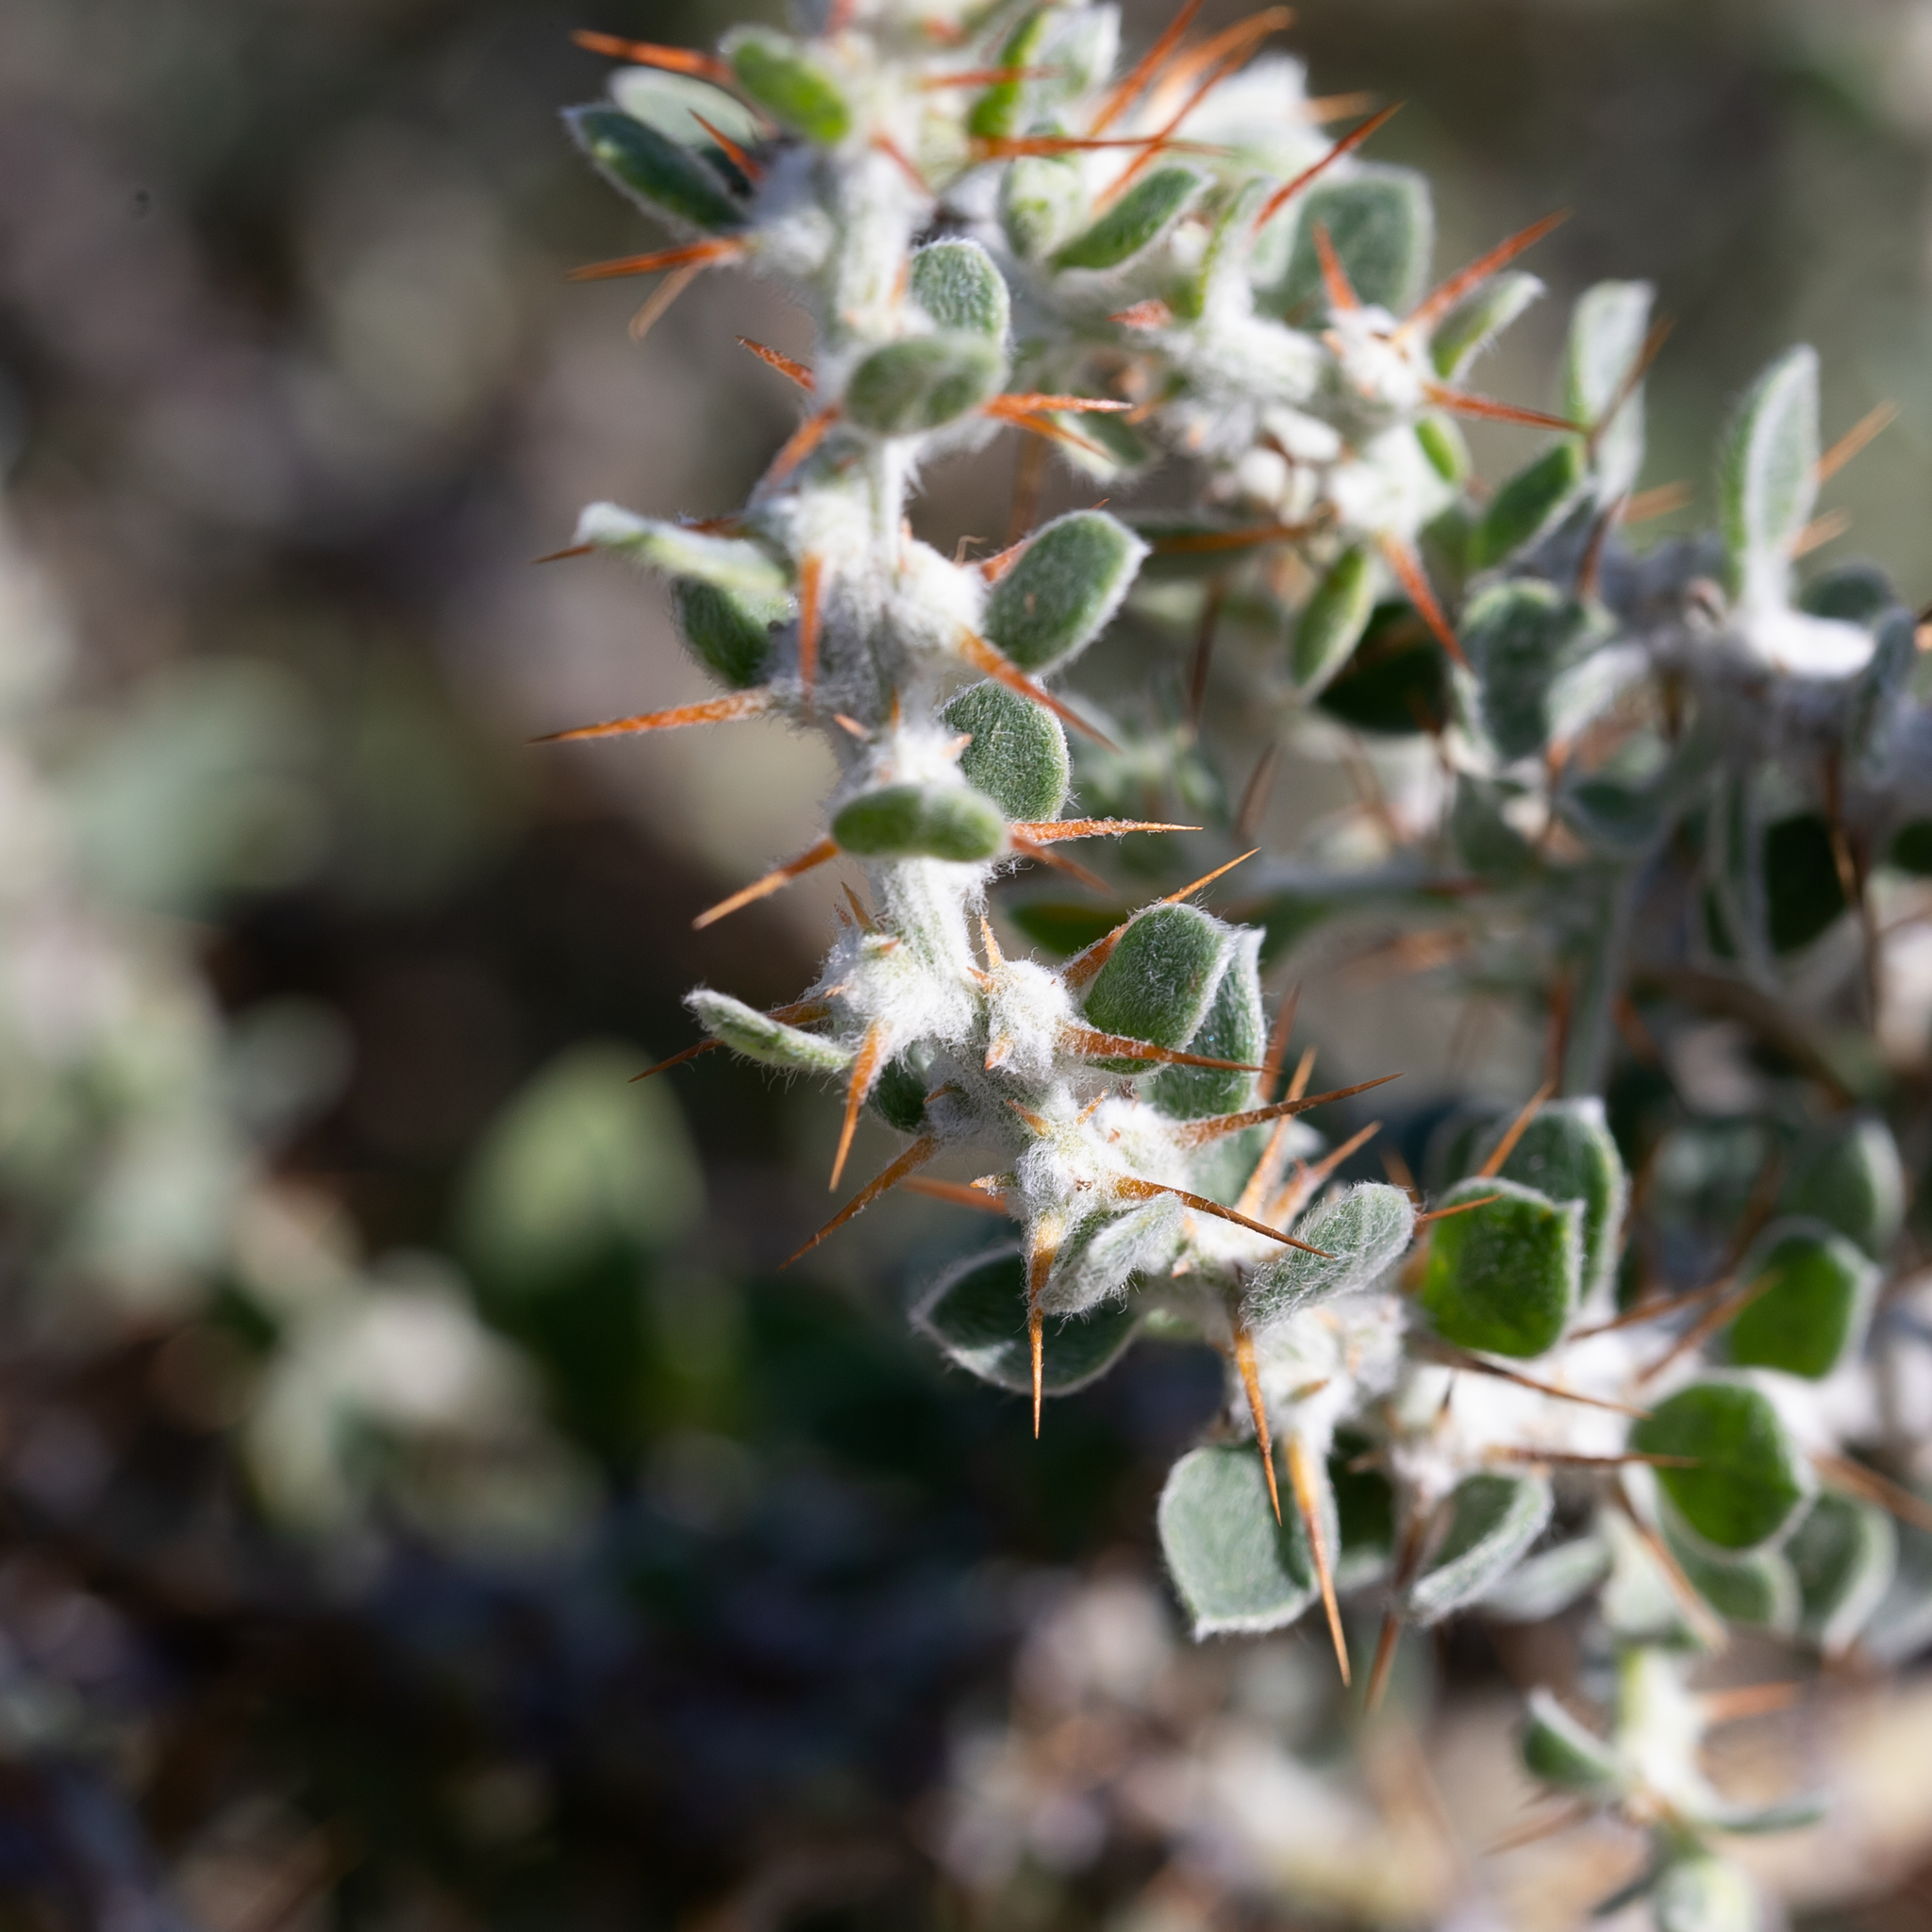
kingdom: Plantae
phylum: Tracheophyta
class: Magnoliopsida
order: Caryophyllales
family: Amaranthaceae
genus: Sclerolaena
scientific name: Sclerolaena birchii
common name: Galvanized bur
